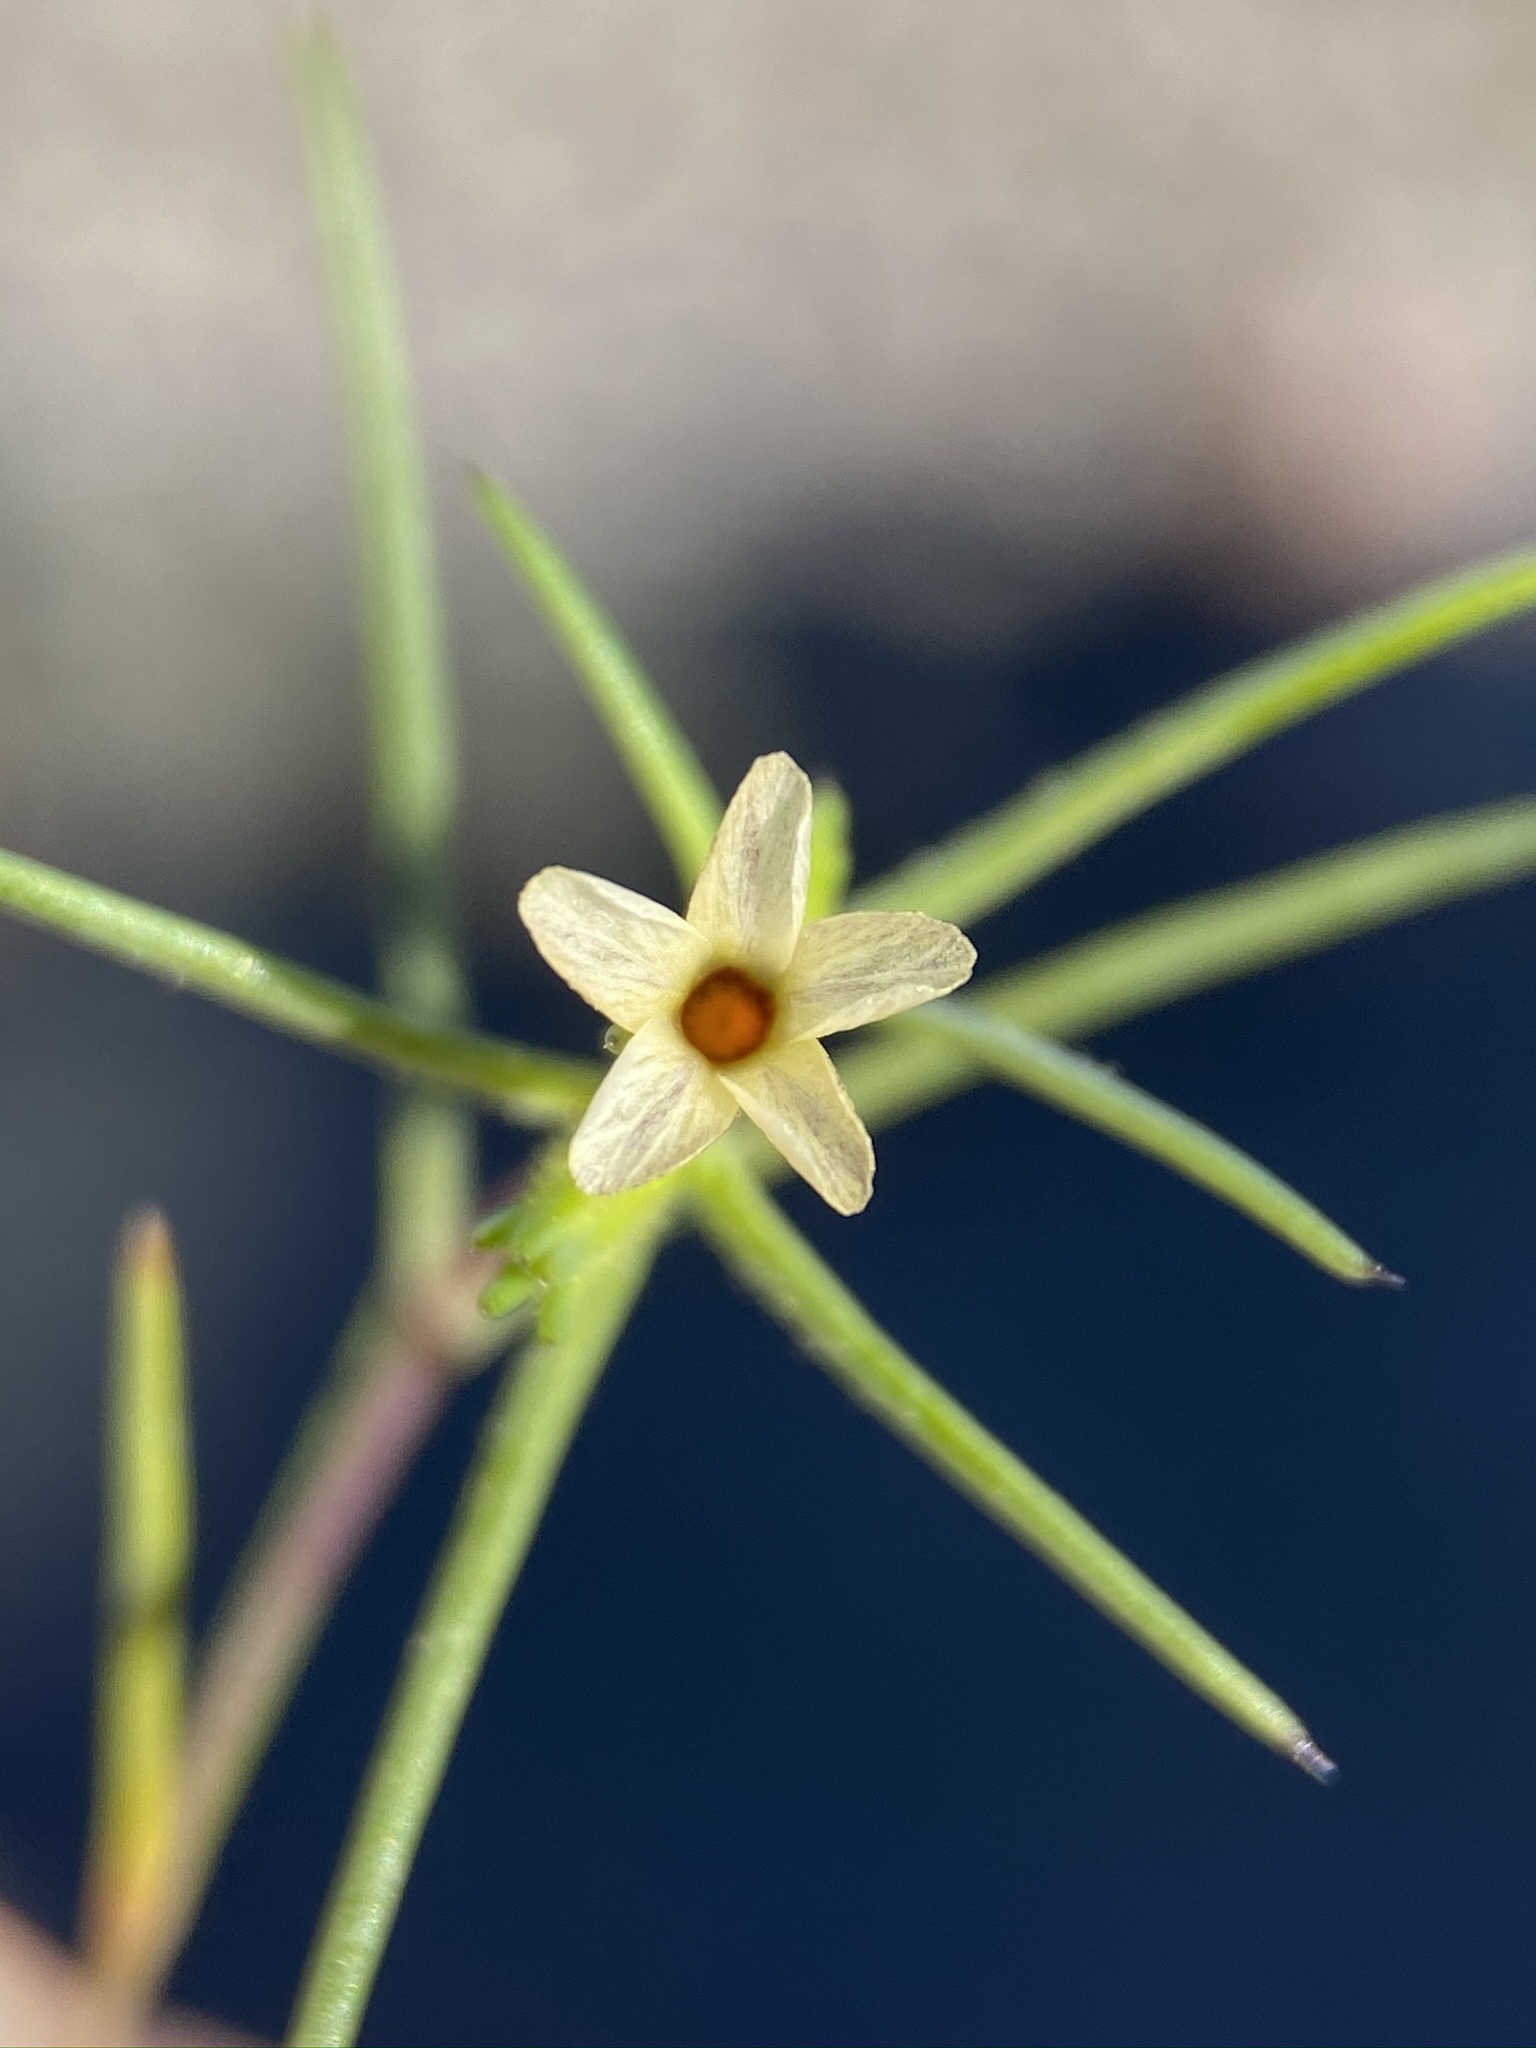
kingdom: Plantae
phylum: Tracheophyta
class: Magnoliopsida
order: Ericales
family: Polemoniaceae
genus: Linanthus
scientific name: Linanthus jonesii
